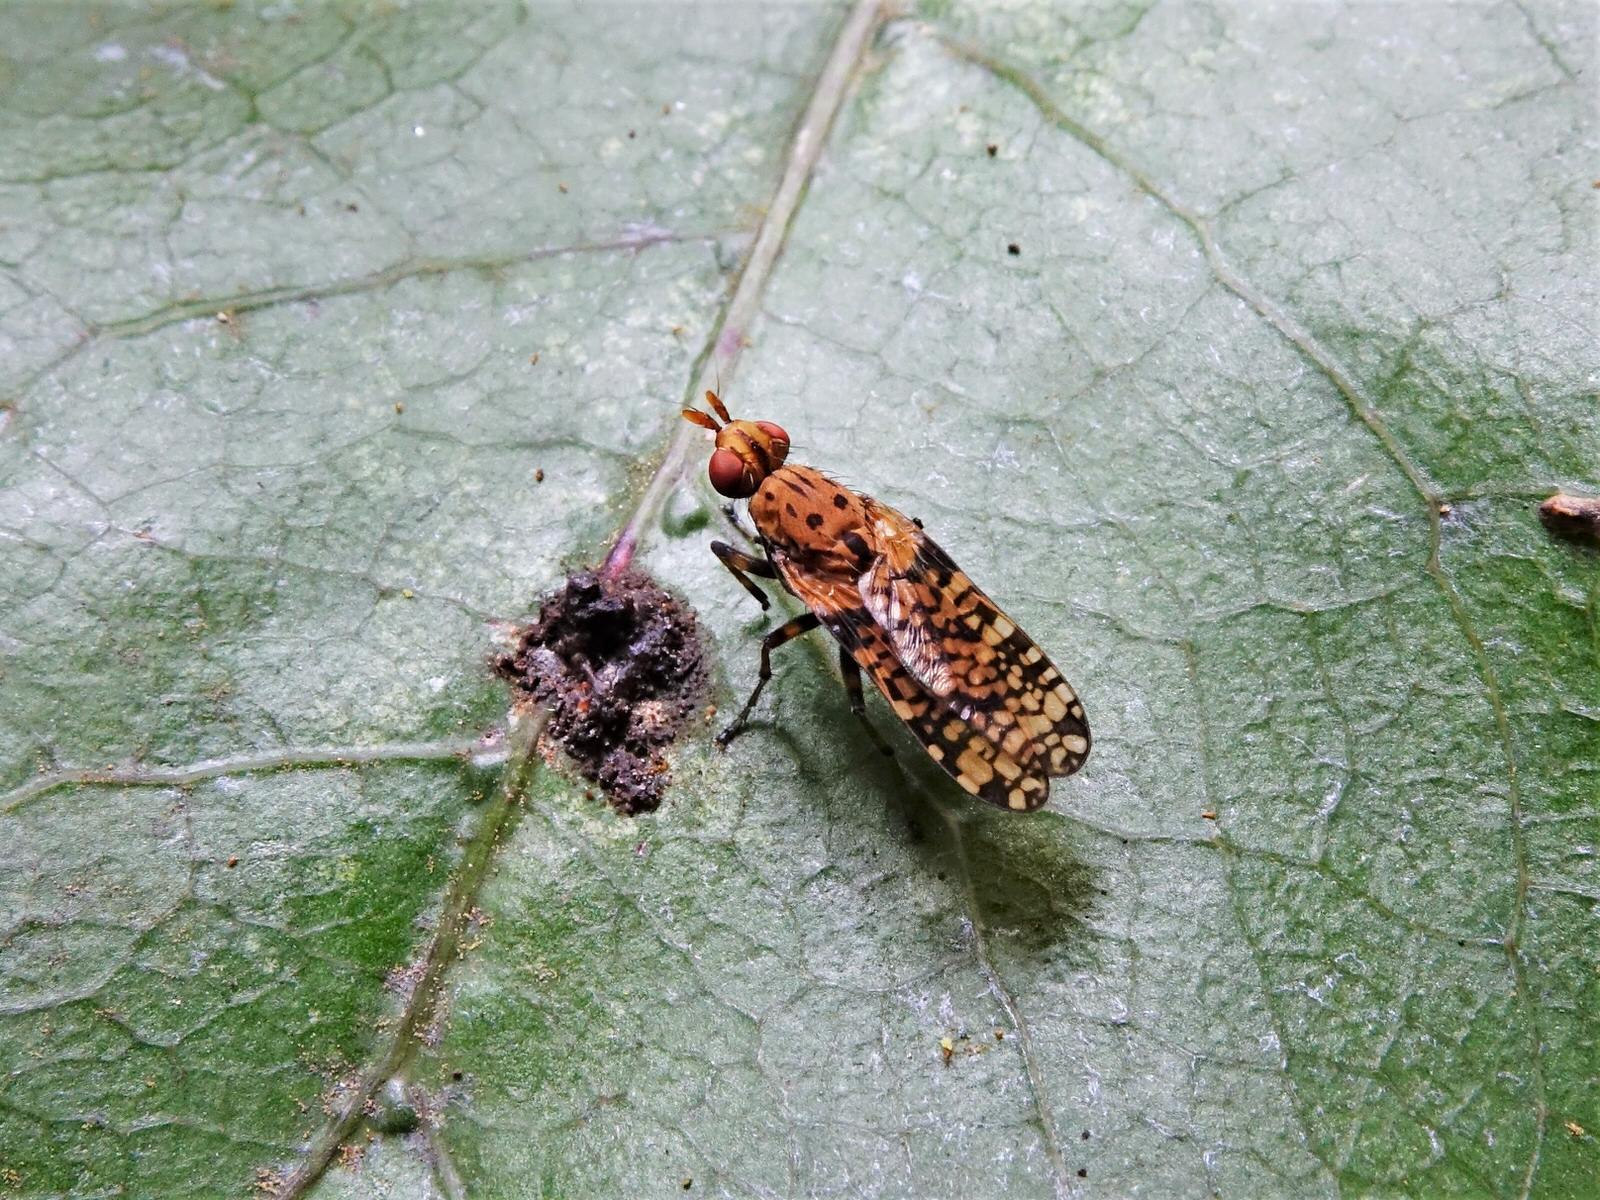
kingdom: Animalia
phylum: Arthropoda
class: Insecta
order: Diptera
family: Sciomyzidae
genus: Eulimnia
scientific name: Eulimnia milleri
